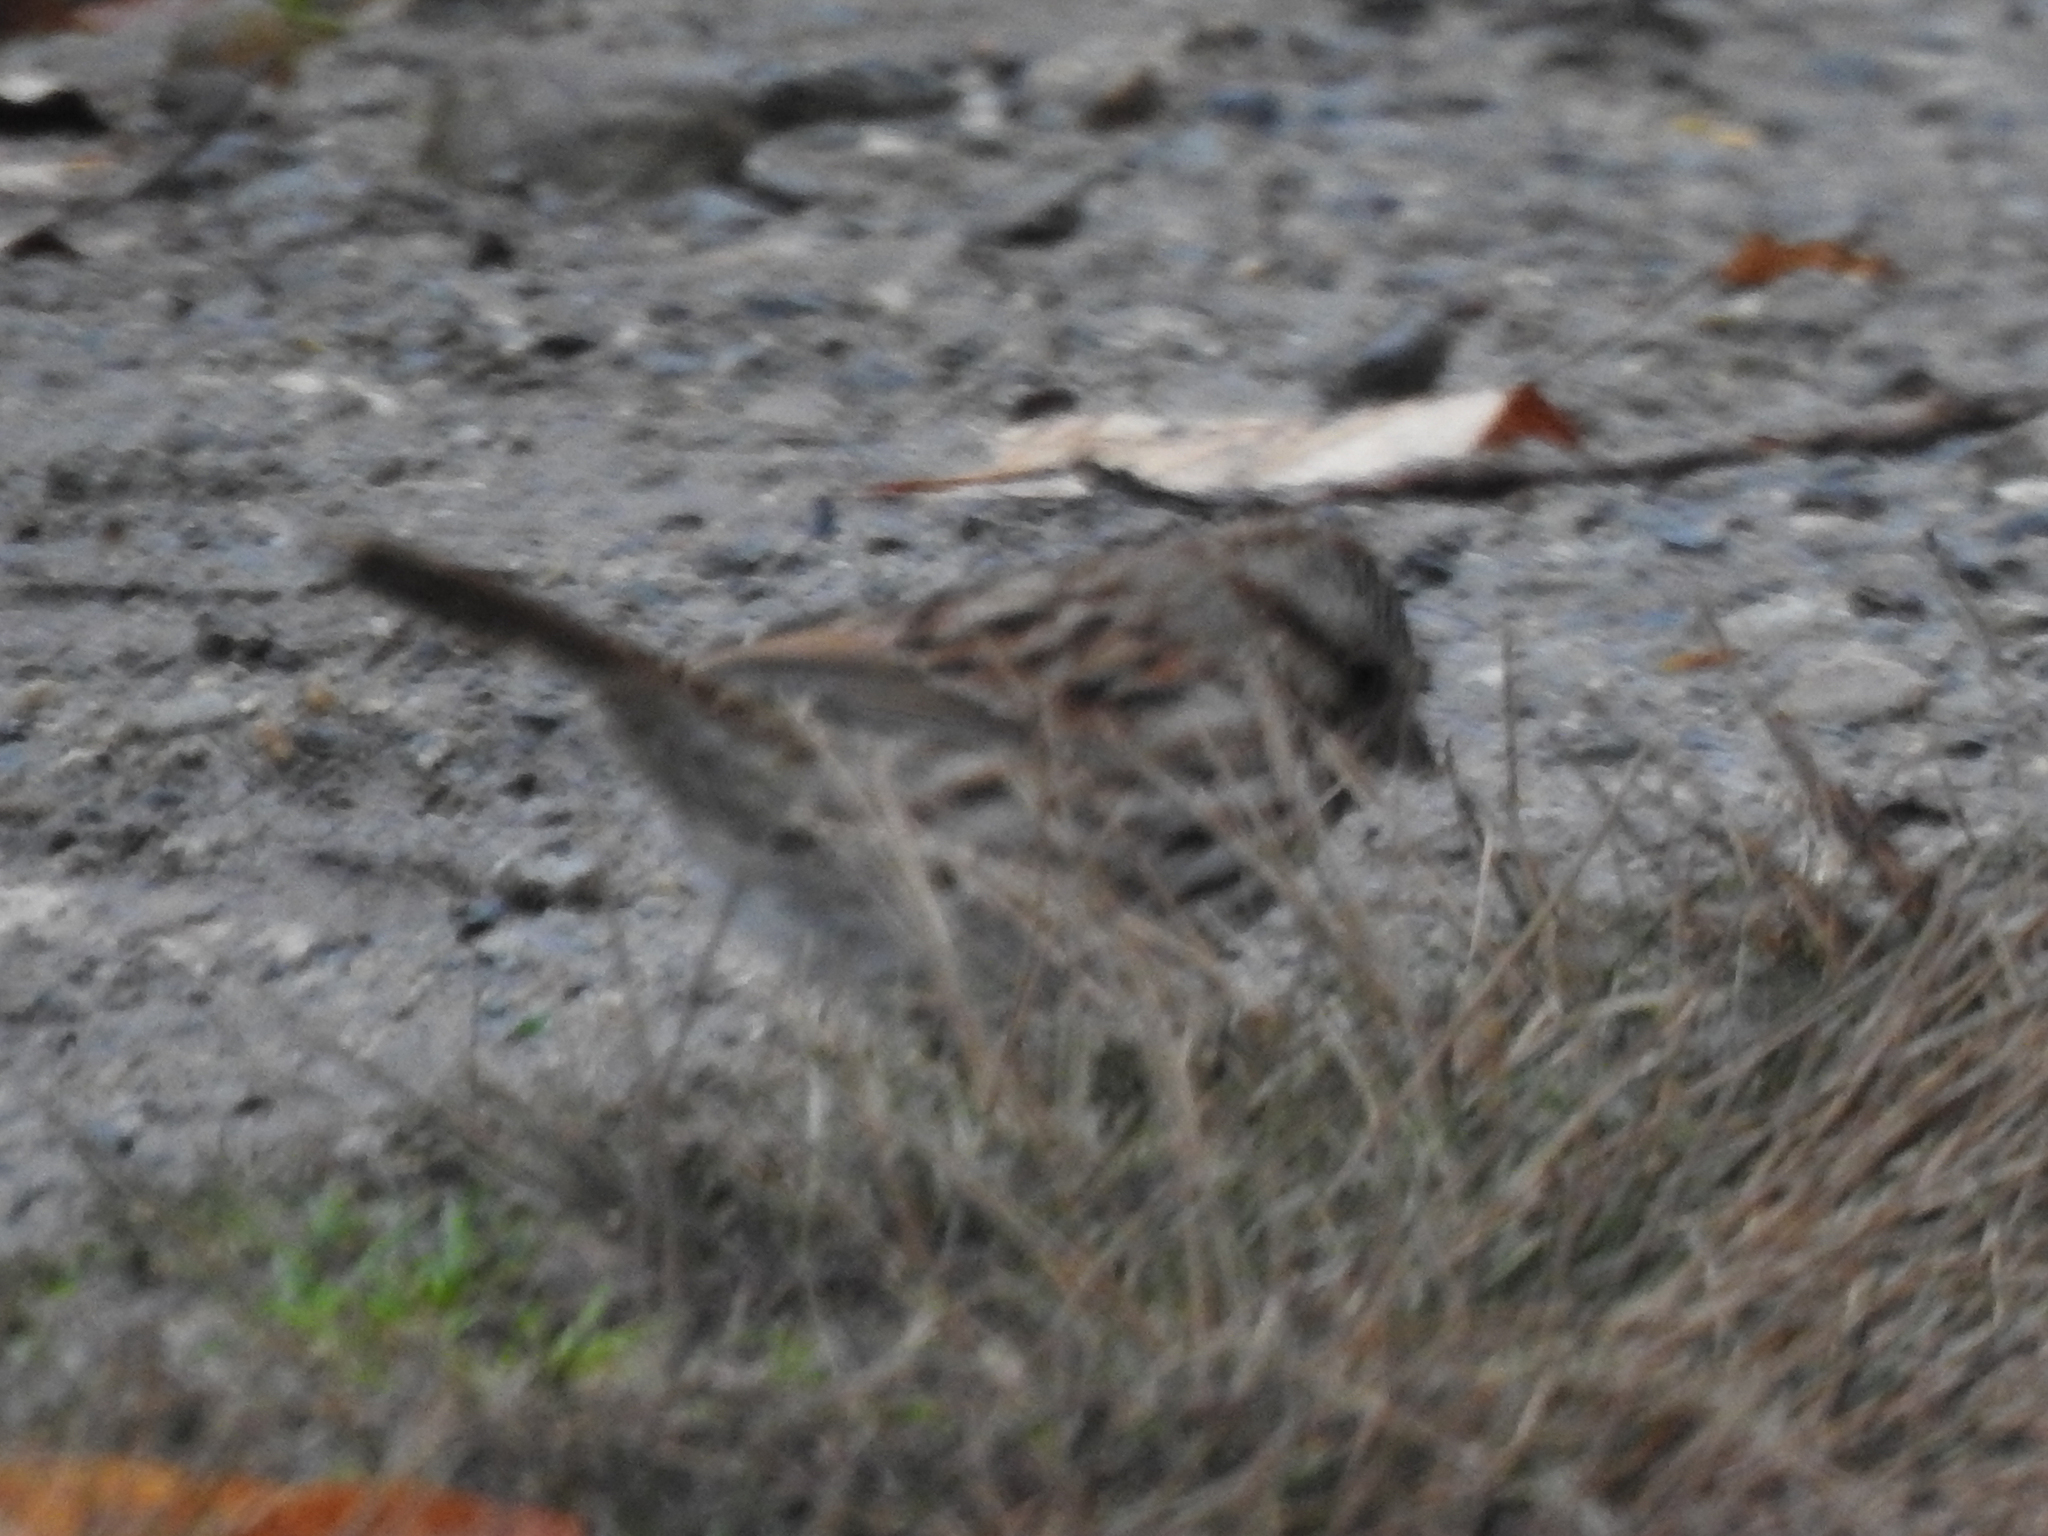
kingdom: Animalia
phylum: Chordata
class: Aves
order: Passeriformes
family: Passerellidae
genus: Melospiza
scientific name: Melospiza melodia
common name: Song sparrow
